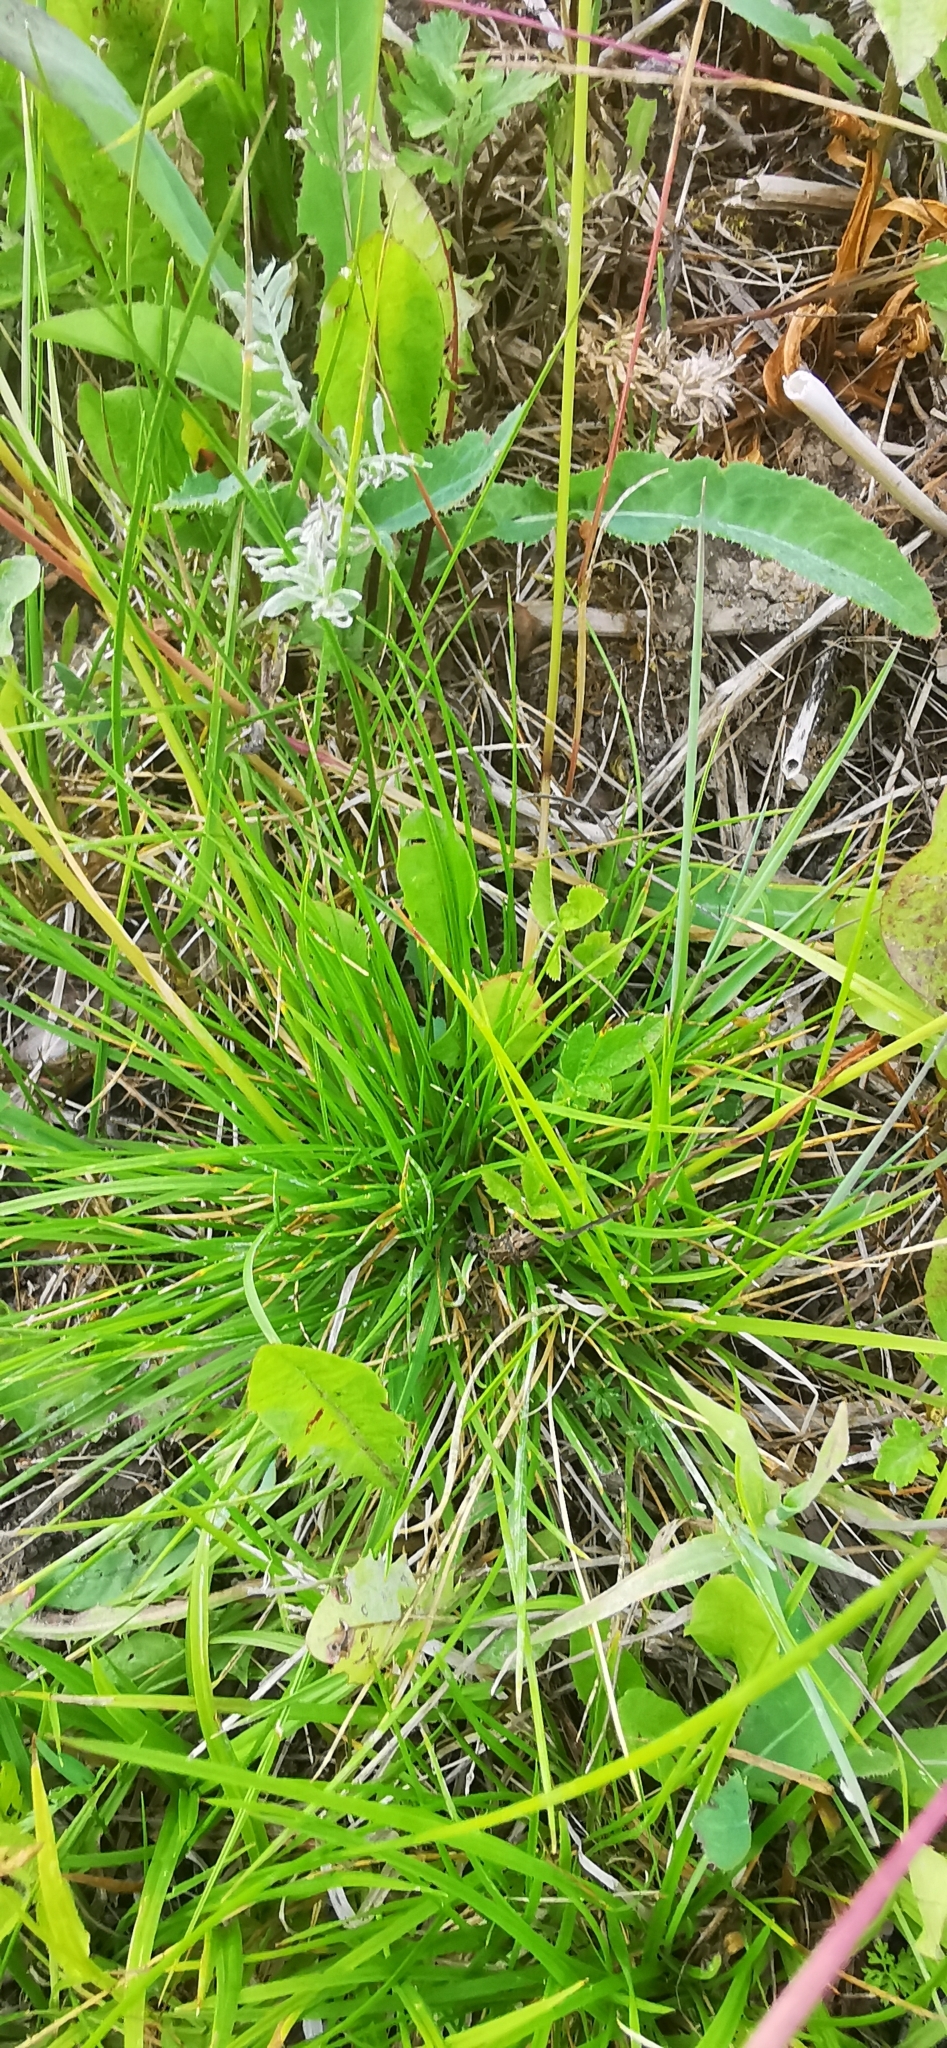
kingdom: Plantae
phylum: Tracheophyta
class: Liliopsida
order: Poales
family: Poaceae
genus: Deschampsia
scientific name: Deschampsia cespitosa
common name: Tufted hair-grass
